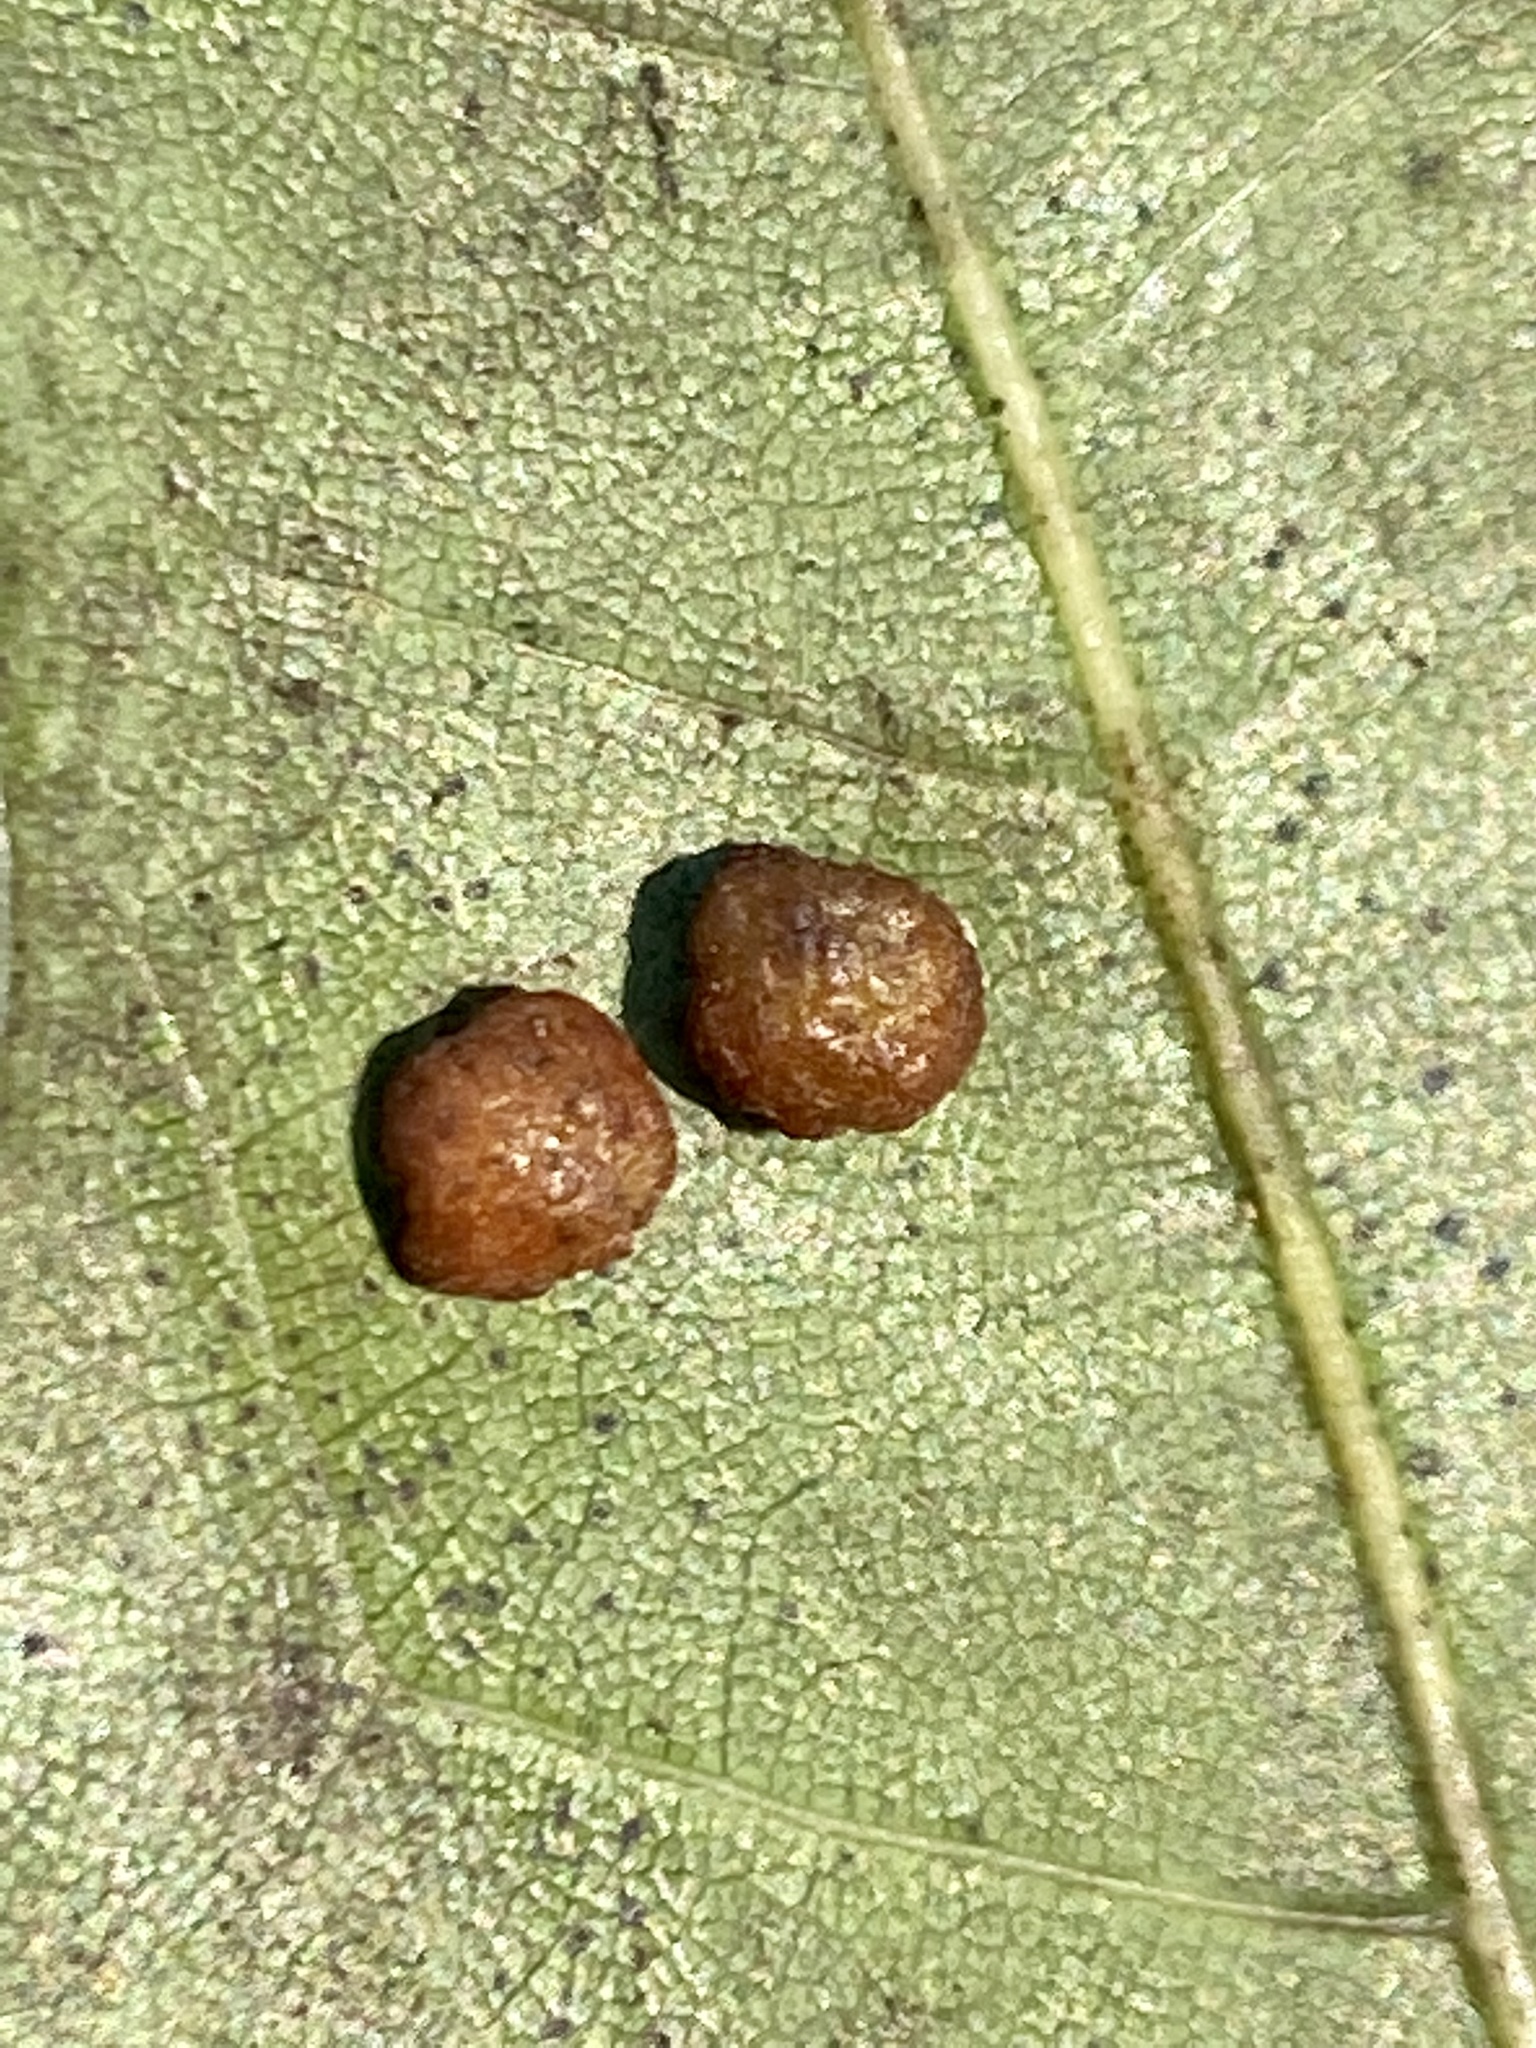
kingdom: Animalia
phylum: Arthropoda
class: Insecta
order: Diptera
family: Cecidomyiidae
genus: Polystepha
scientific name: Polystepha globosa
